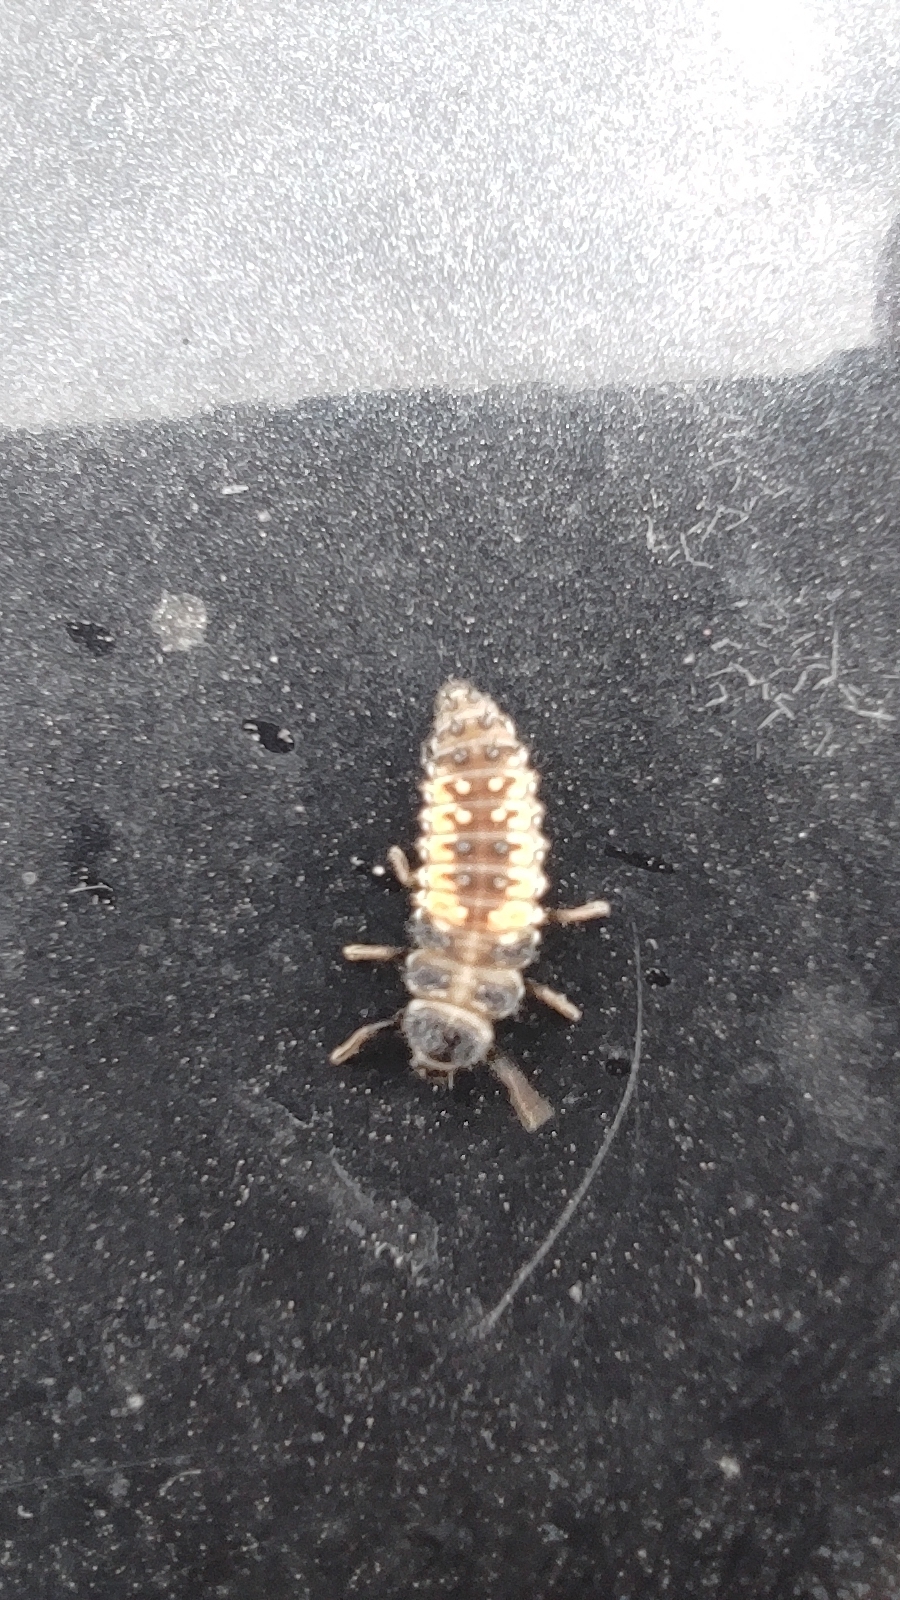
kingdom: Animalia
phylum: Arthropoda
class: Insecta
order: Coleoptera
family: Coccinellidae
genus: Harmonia
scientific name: Harmonia axyridis
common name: Harlequin ladybird
